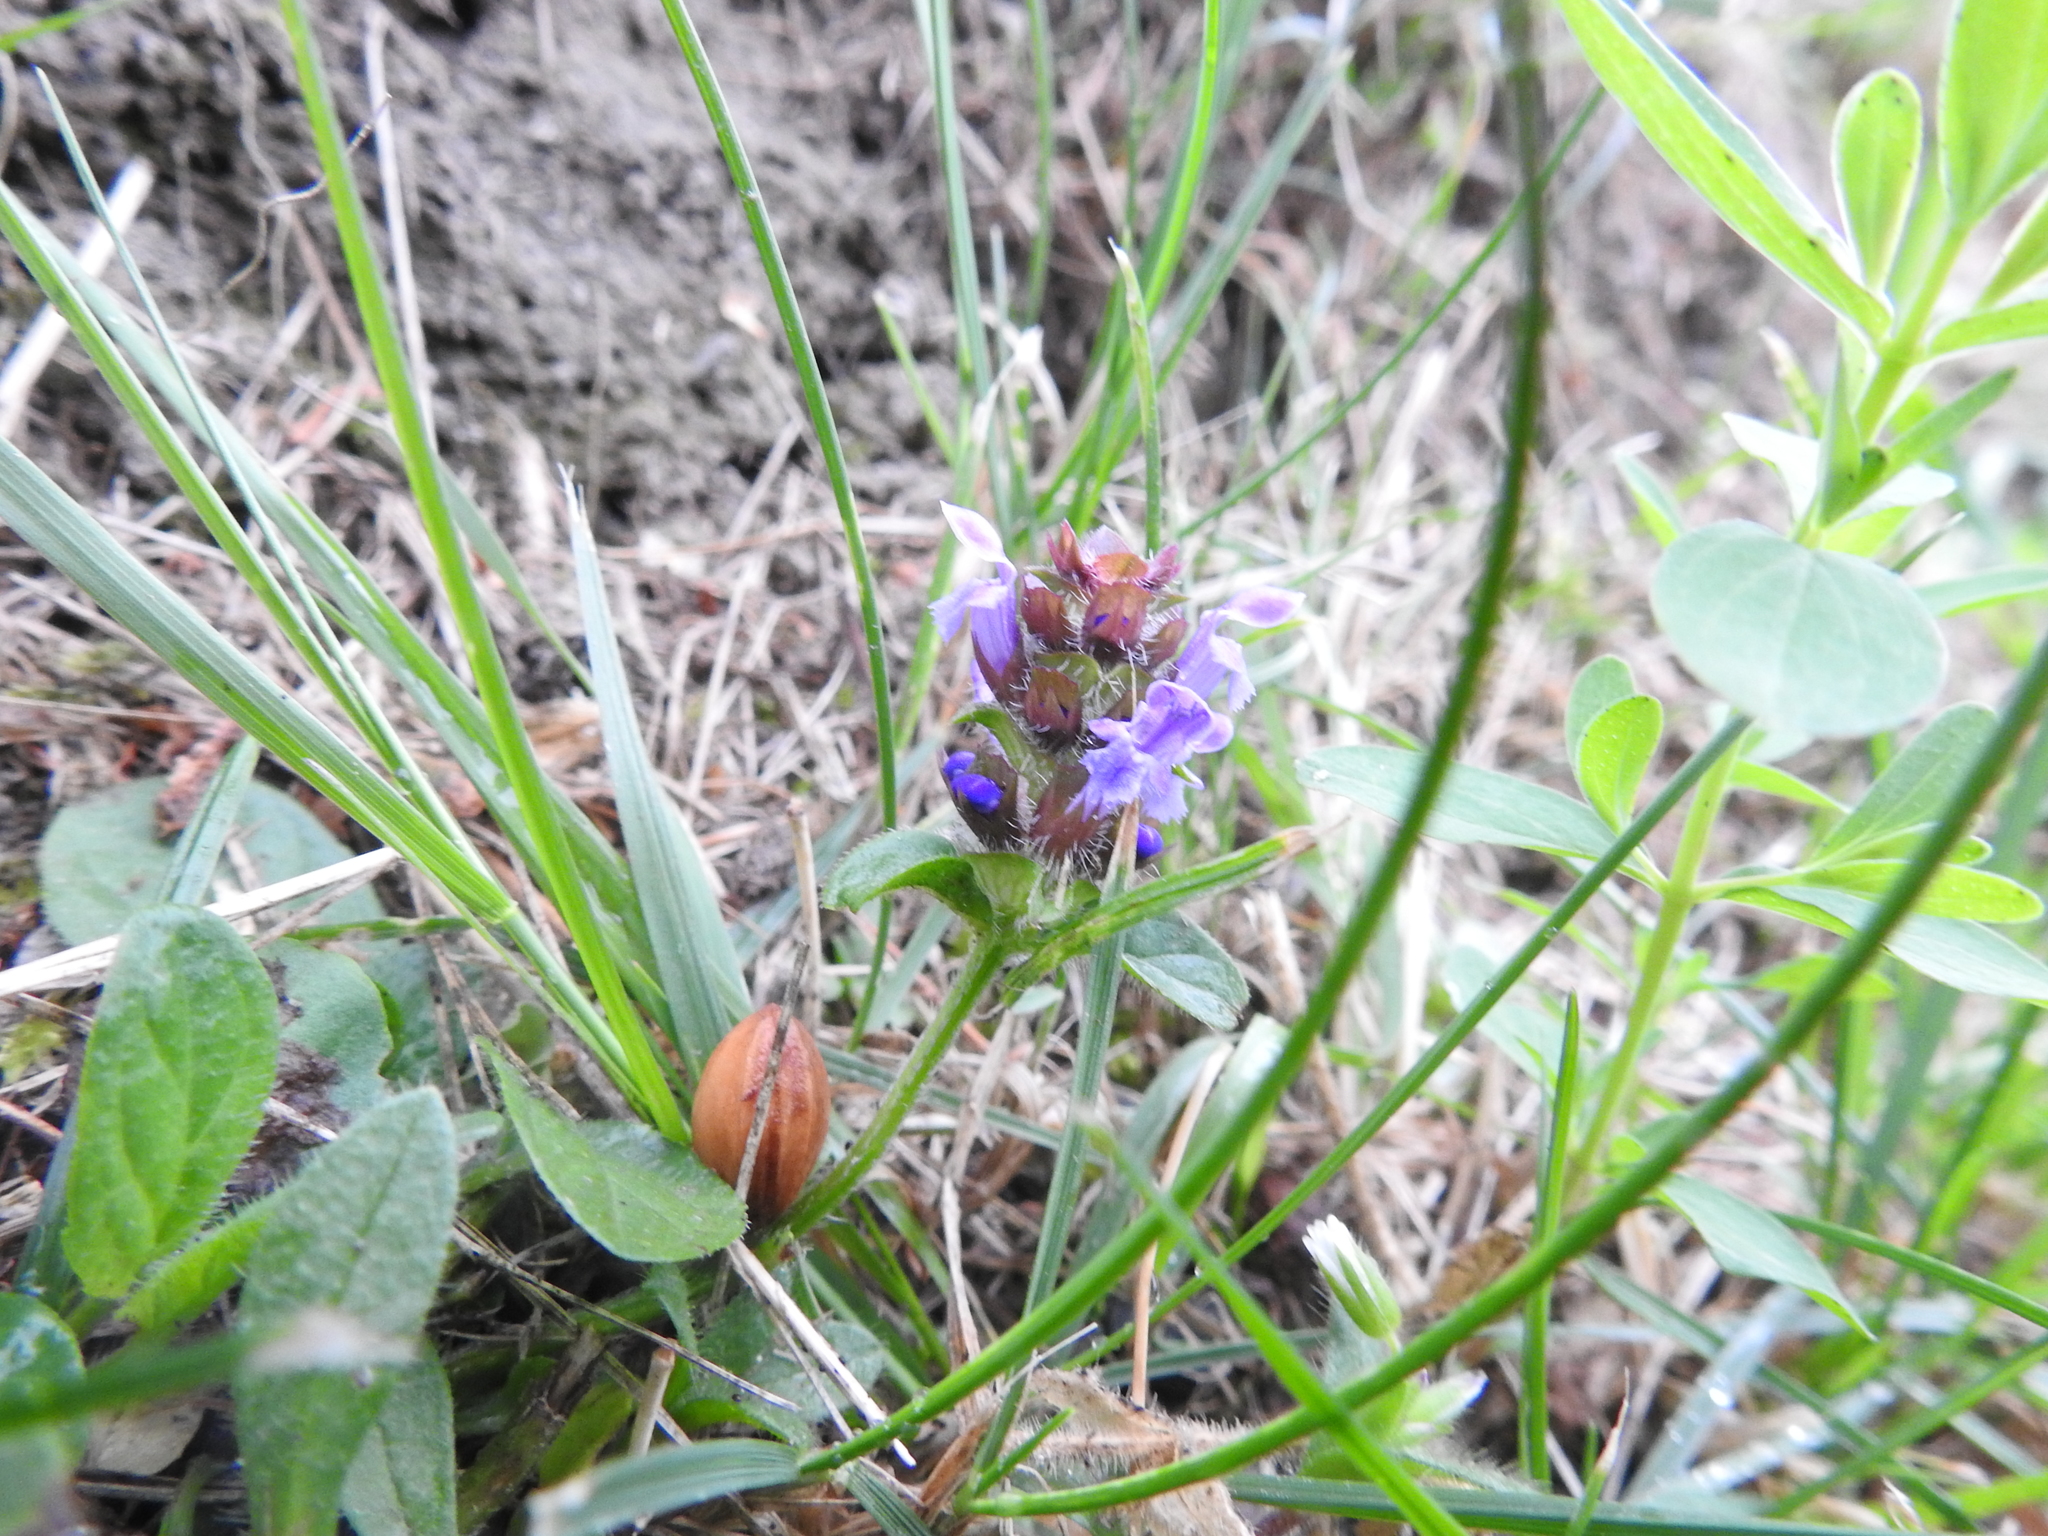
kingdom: Plantae
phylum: Tracheophyta
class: Magnoliopsida
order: Lamiales
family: Lamiaceae
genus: Prunella
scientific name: Prunella vulgaris
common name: Heal-all
